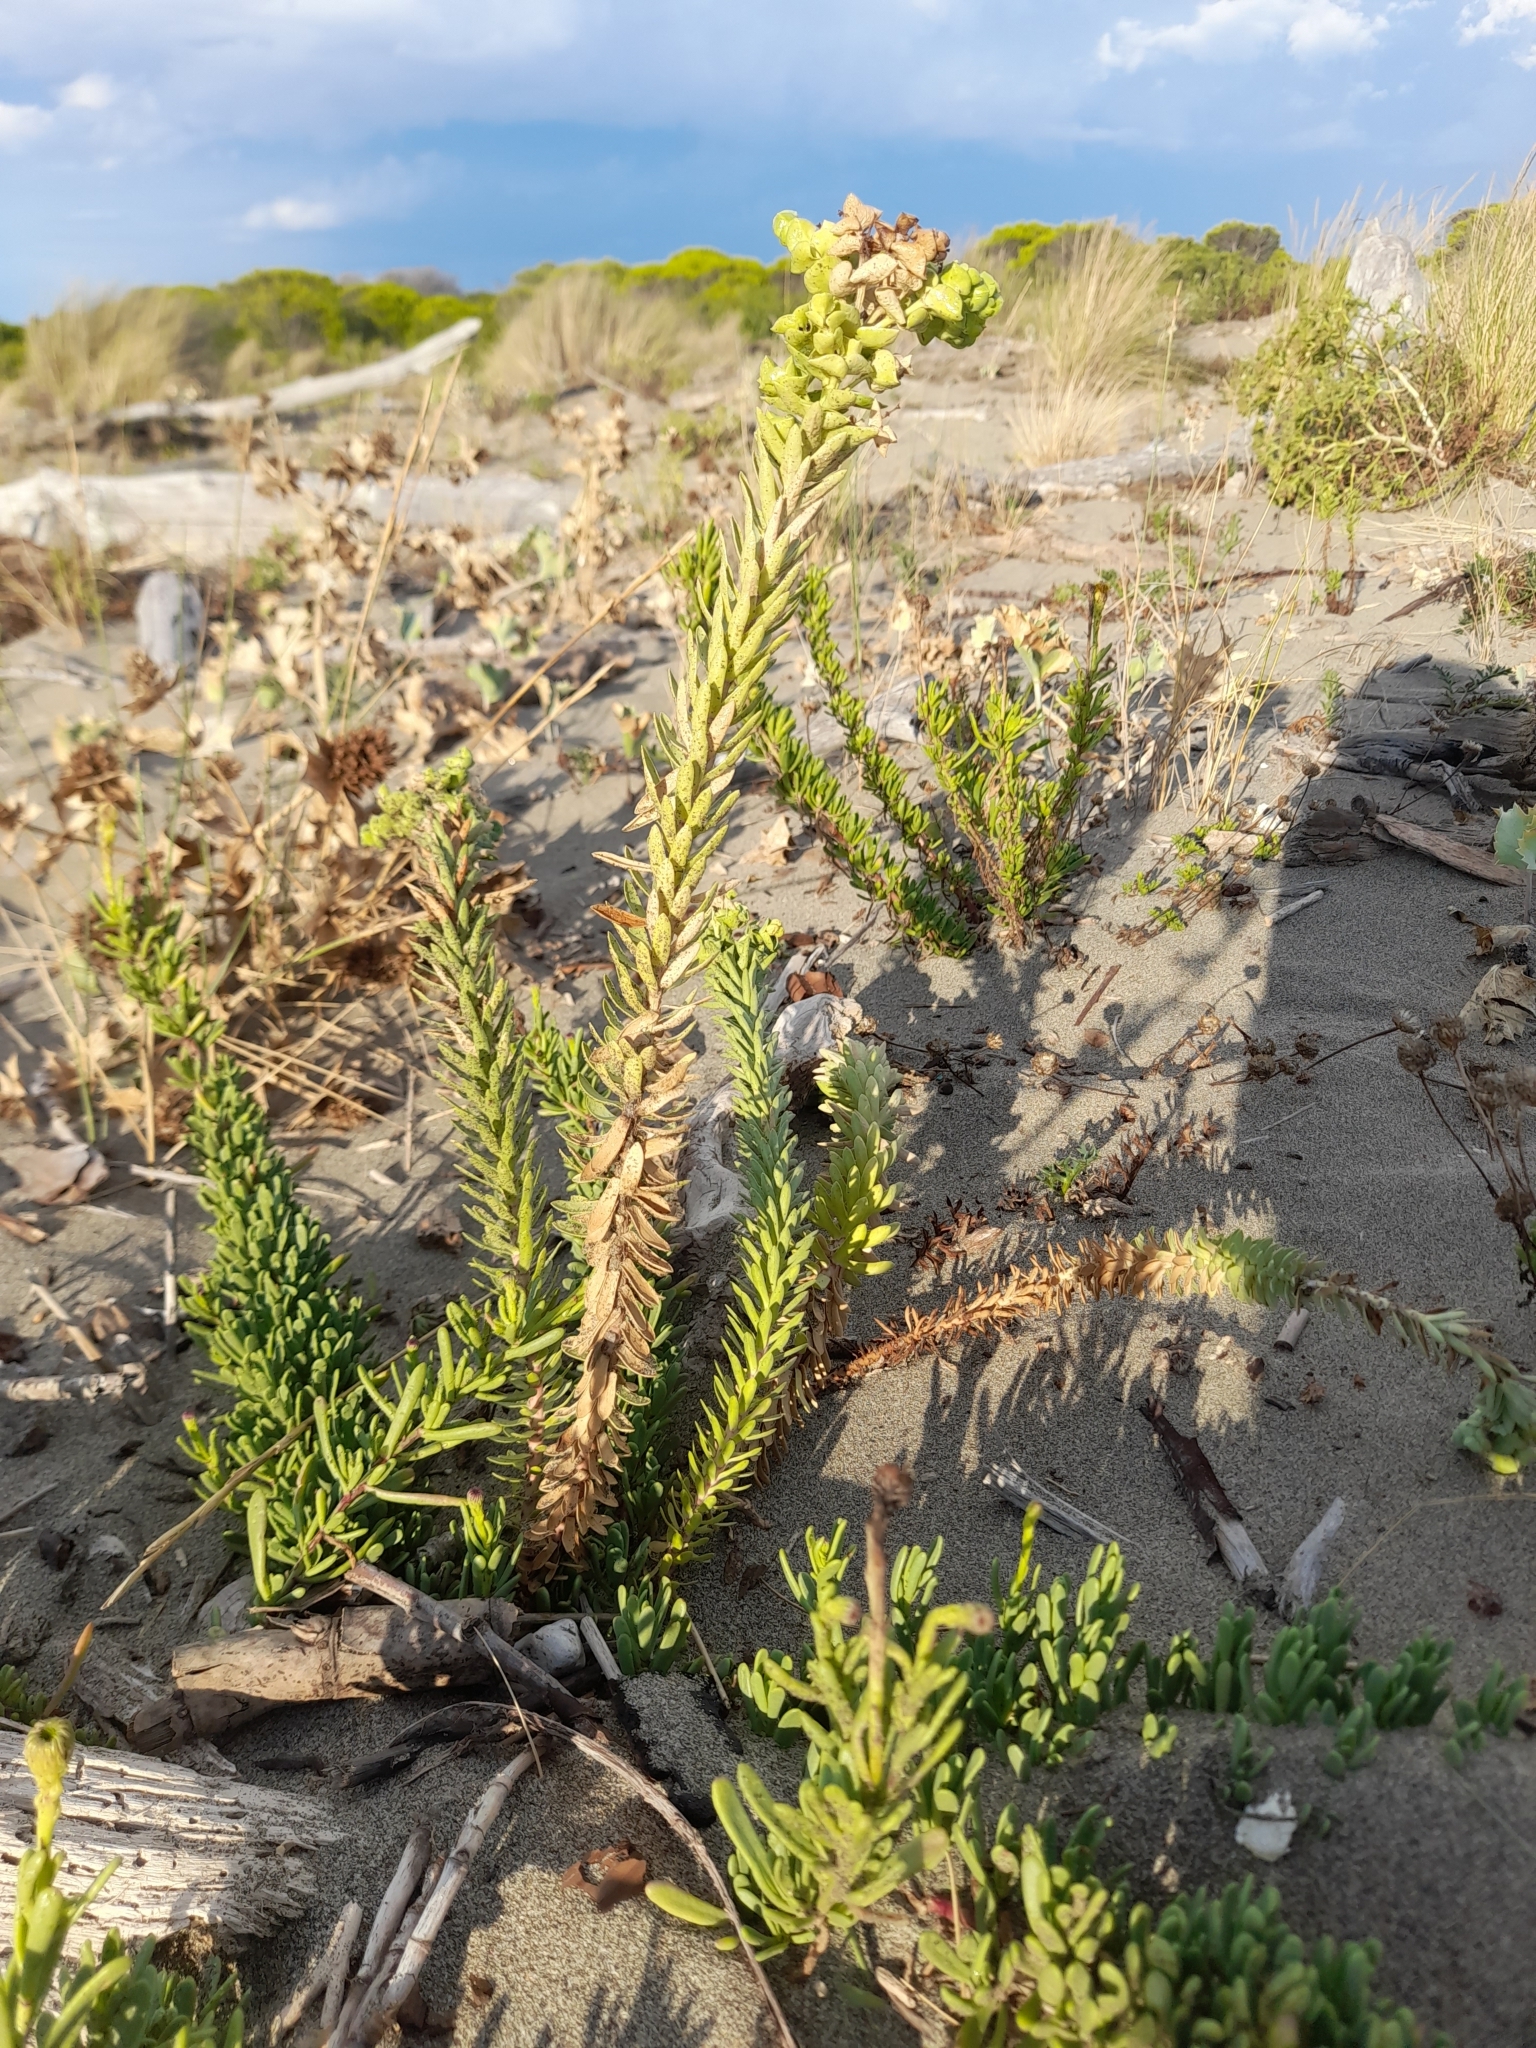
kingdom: Plantae
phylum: Tracheophyta
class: Magnoliopsida
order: Malpighiales
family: Euphorbiaceae
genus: Euphorbia
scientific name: Euphorbia paralias
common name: Sea spurge
